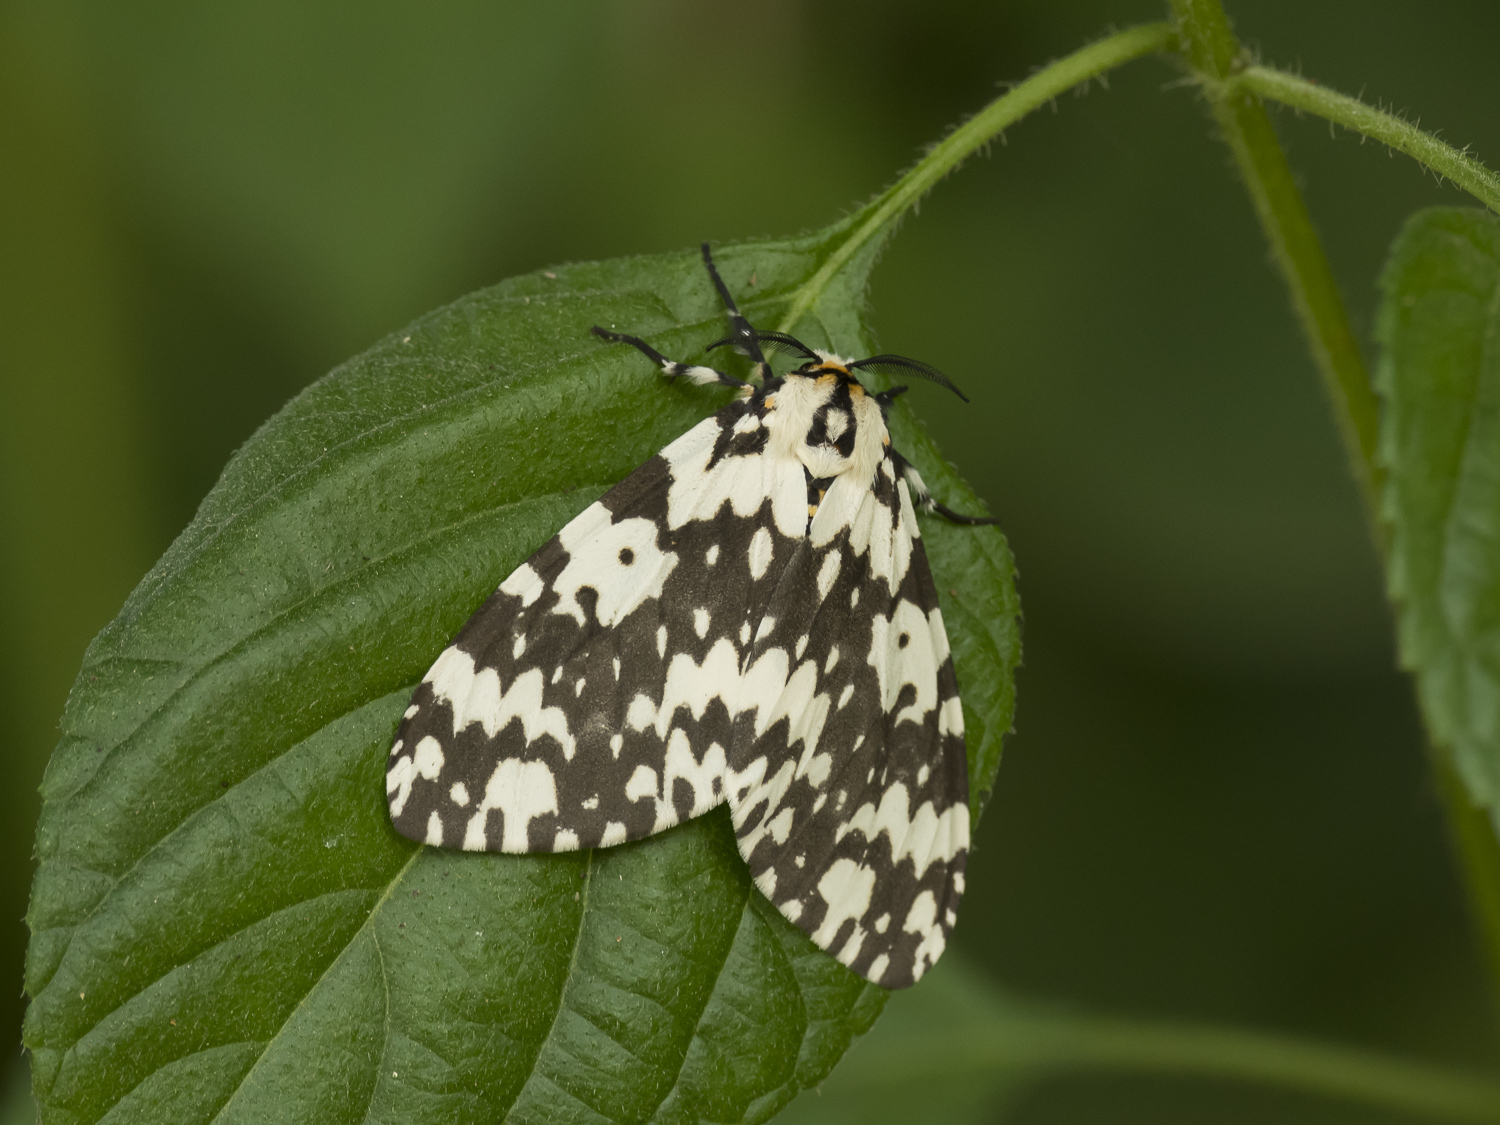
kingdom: Animalia
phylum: Arthropoda
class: Insecta
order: Lepidoptera
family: Erebidae
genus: Lymantria
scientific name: Lymantria marginata
